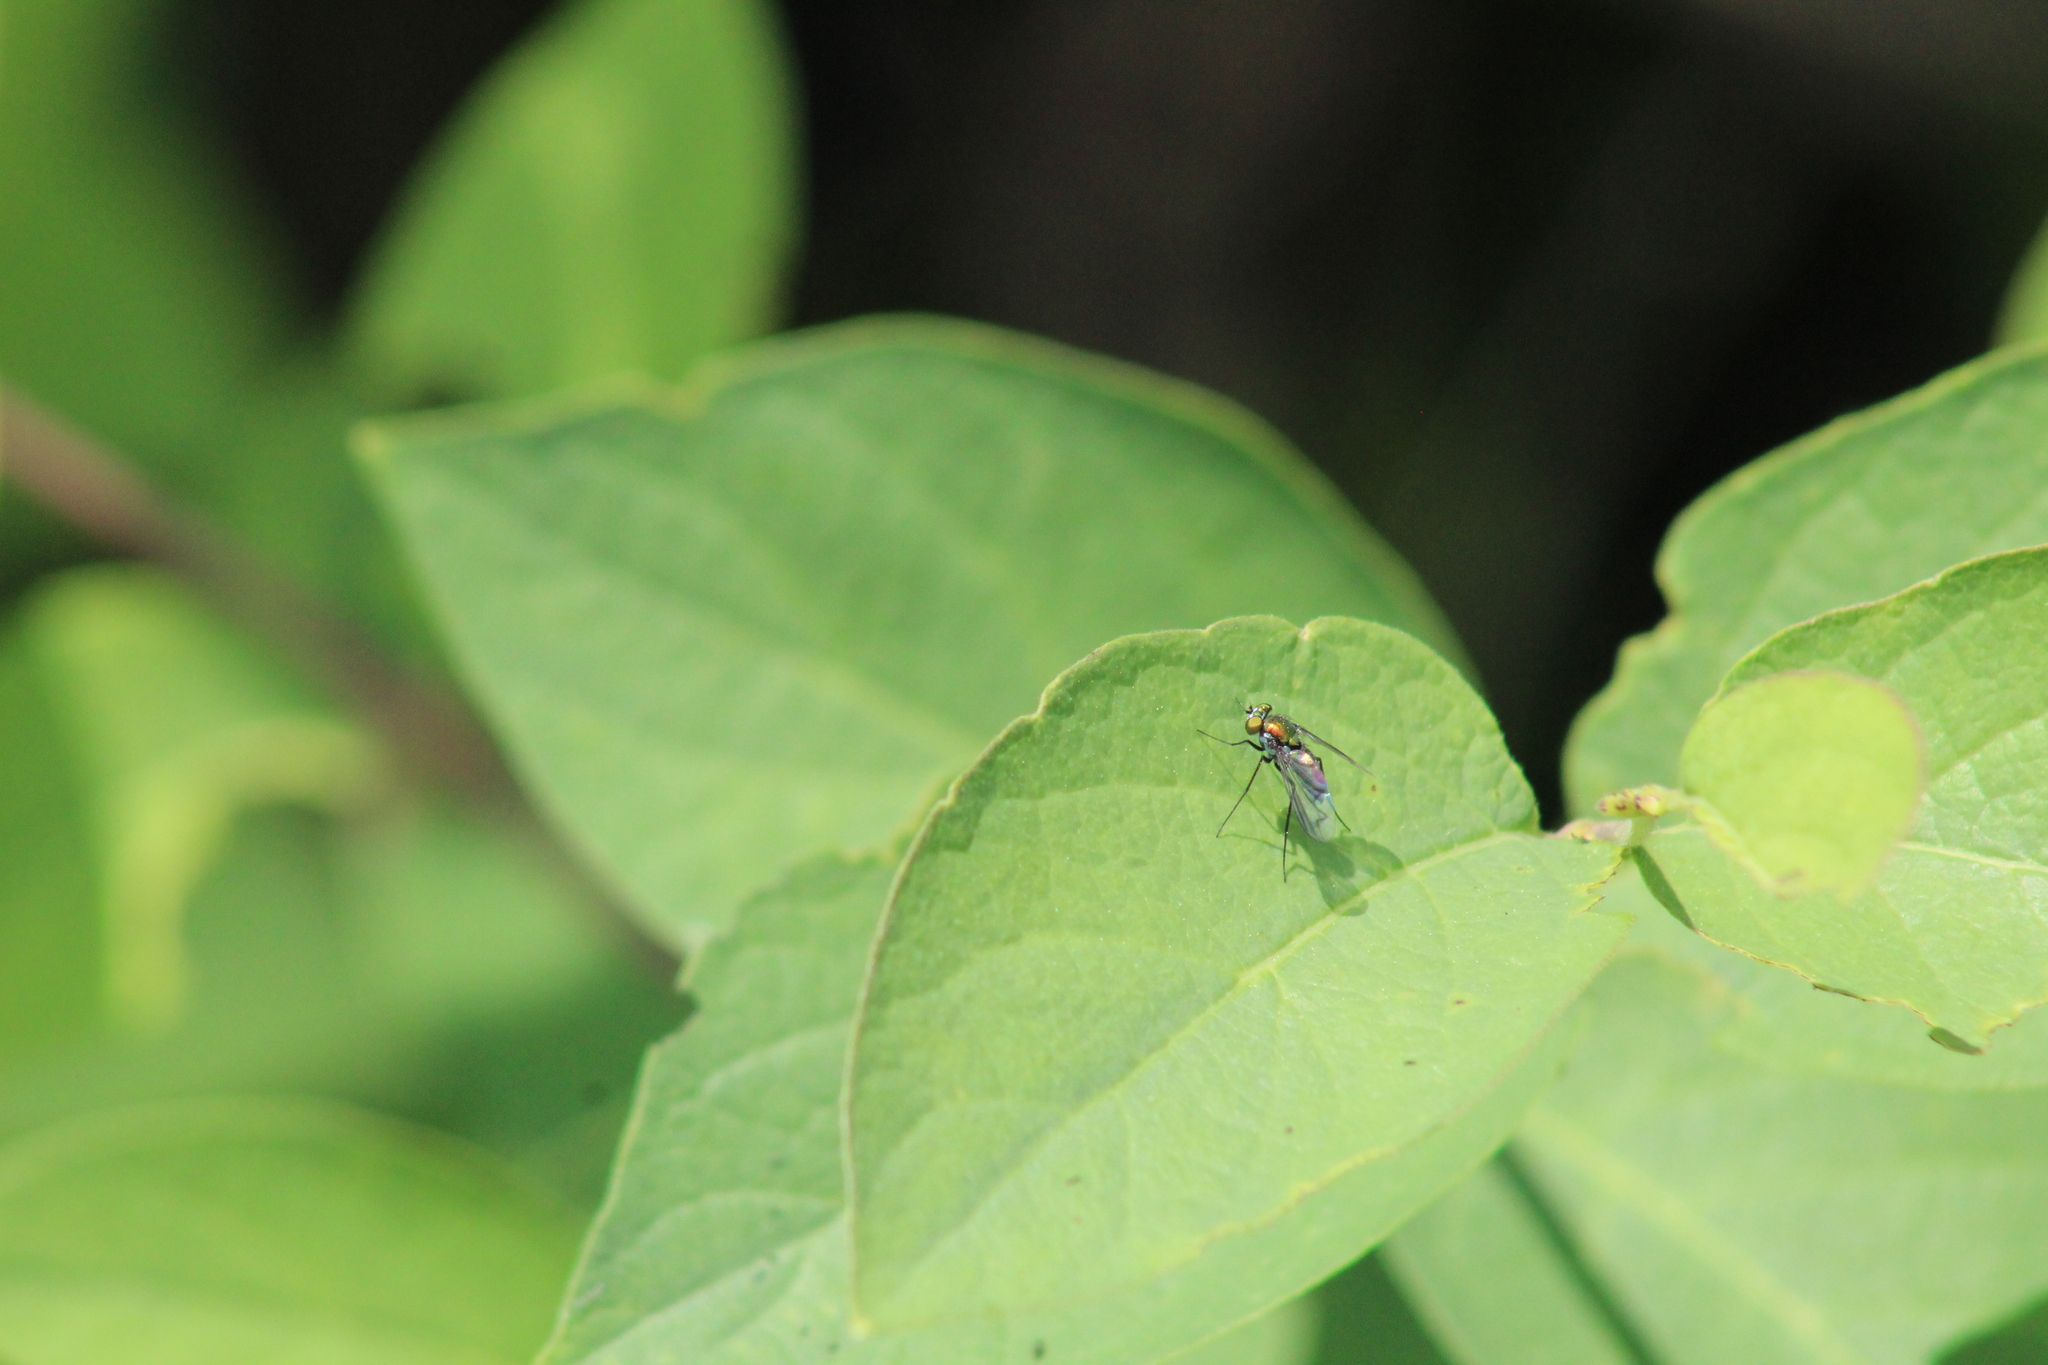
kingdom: Animalia
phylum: Arthropoda
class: Insecta
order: Diptera
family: Dolichopodidae
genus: Condylostylus
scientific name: Condylostylus patibulatus
